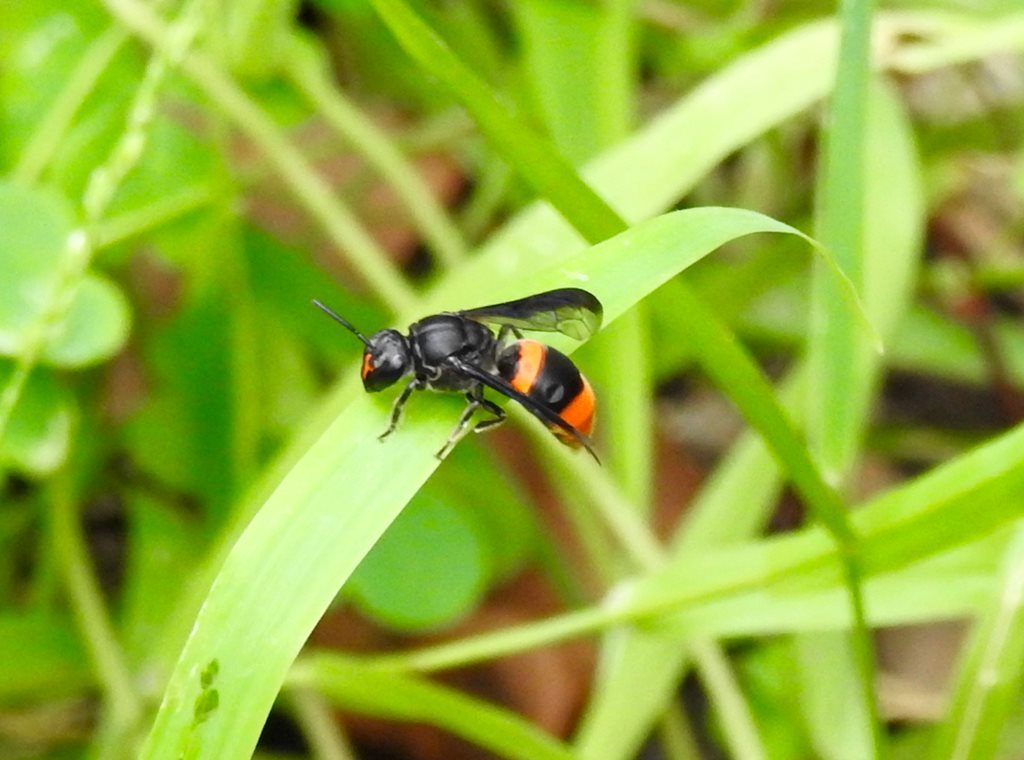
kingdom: Animalia
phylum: Arthropoda
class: Insecta
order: Hymenoptera
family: Colletidae
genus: Hyleoides
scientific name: Hyleoides concinna
